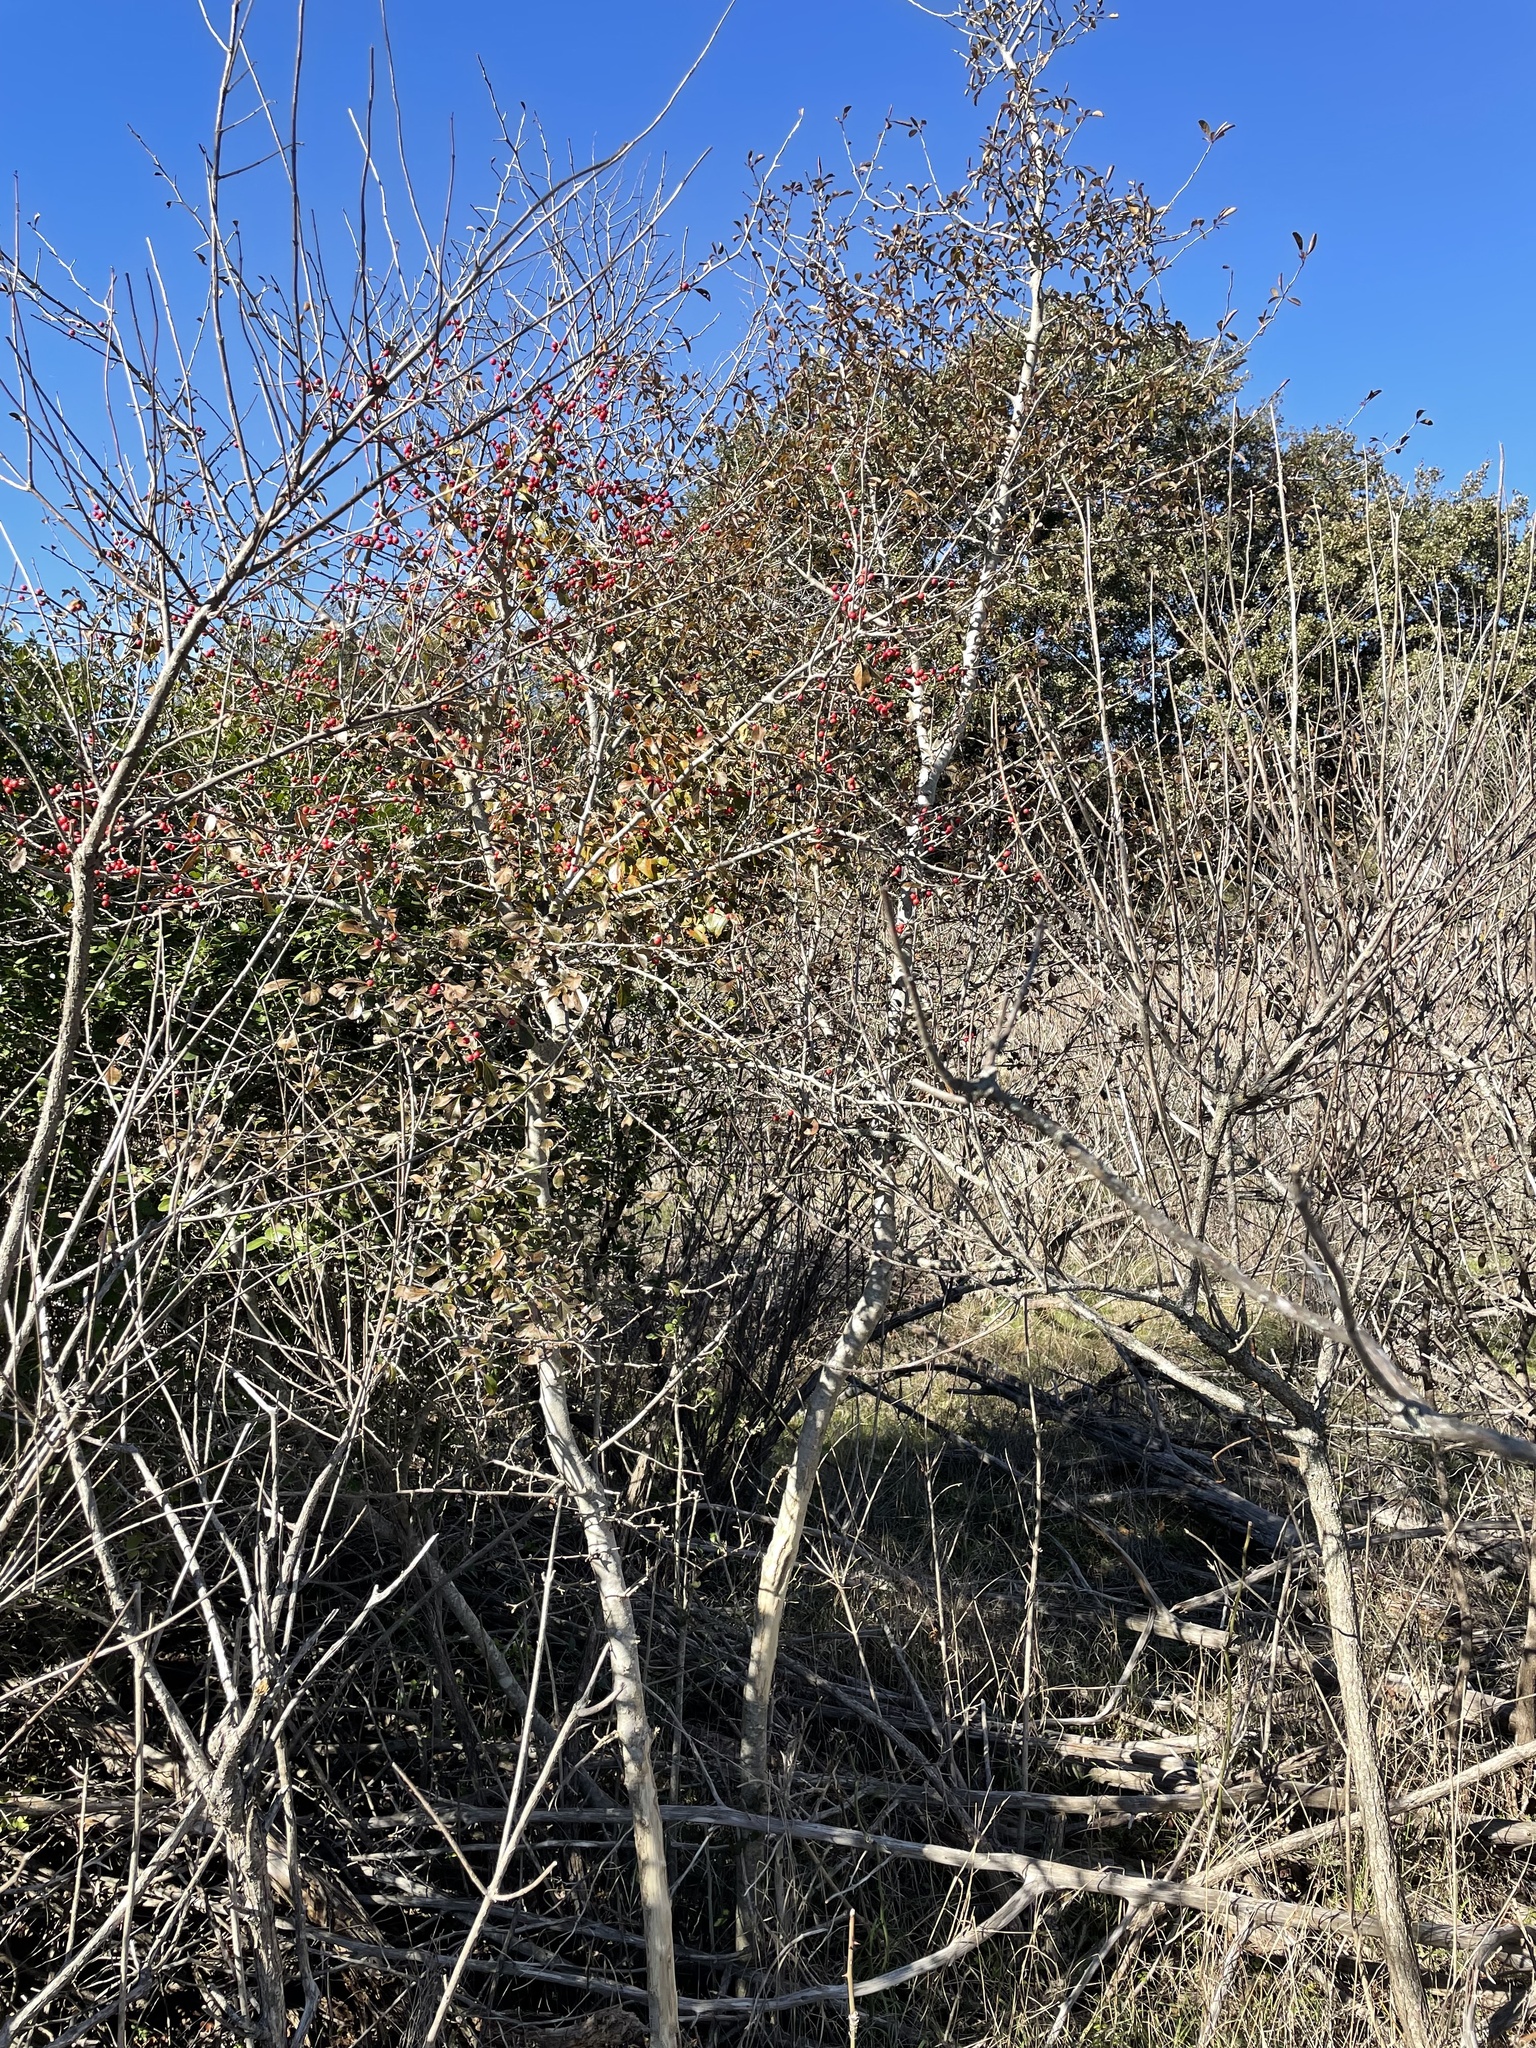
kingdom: Plantae
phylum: Tracheophyta
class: Magnoliopsida
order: Aquifoliales
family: Aquifoliaceae
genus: Ilex
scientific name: Ilex decidua
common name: Possum-haw
